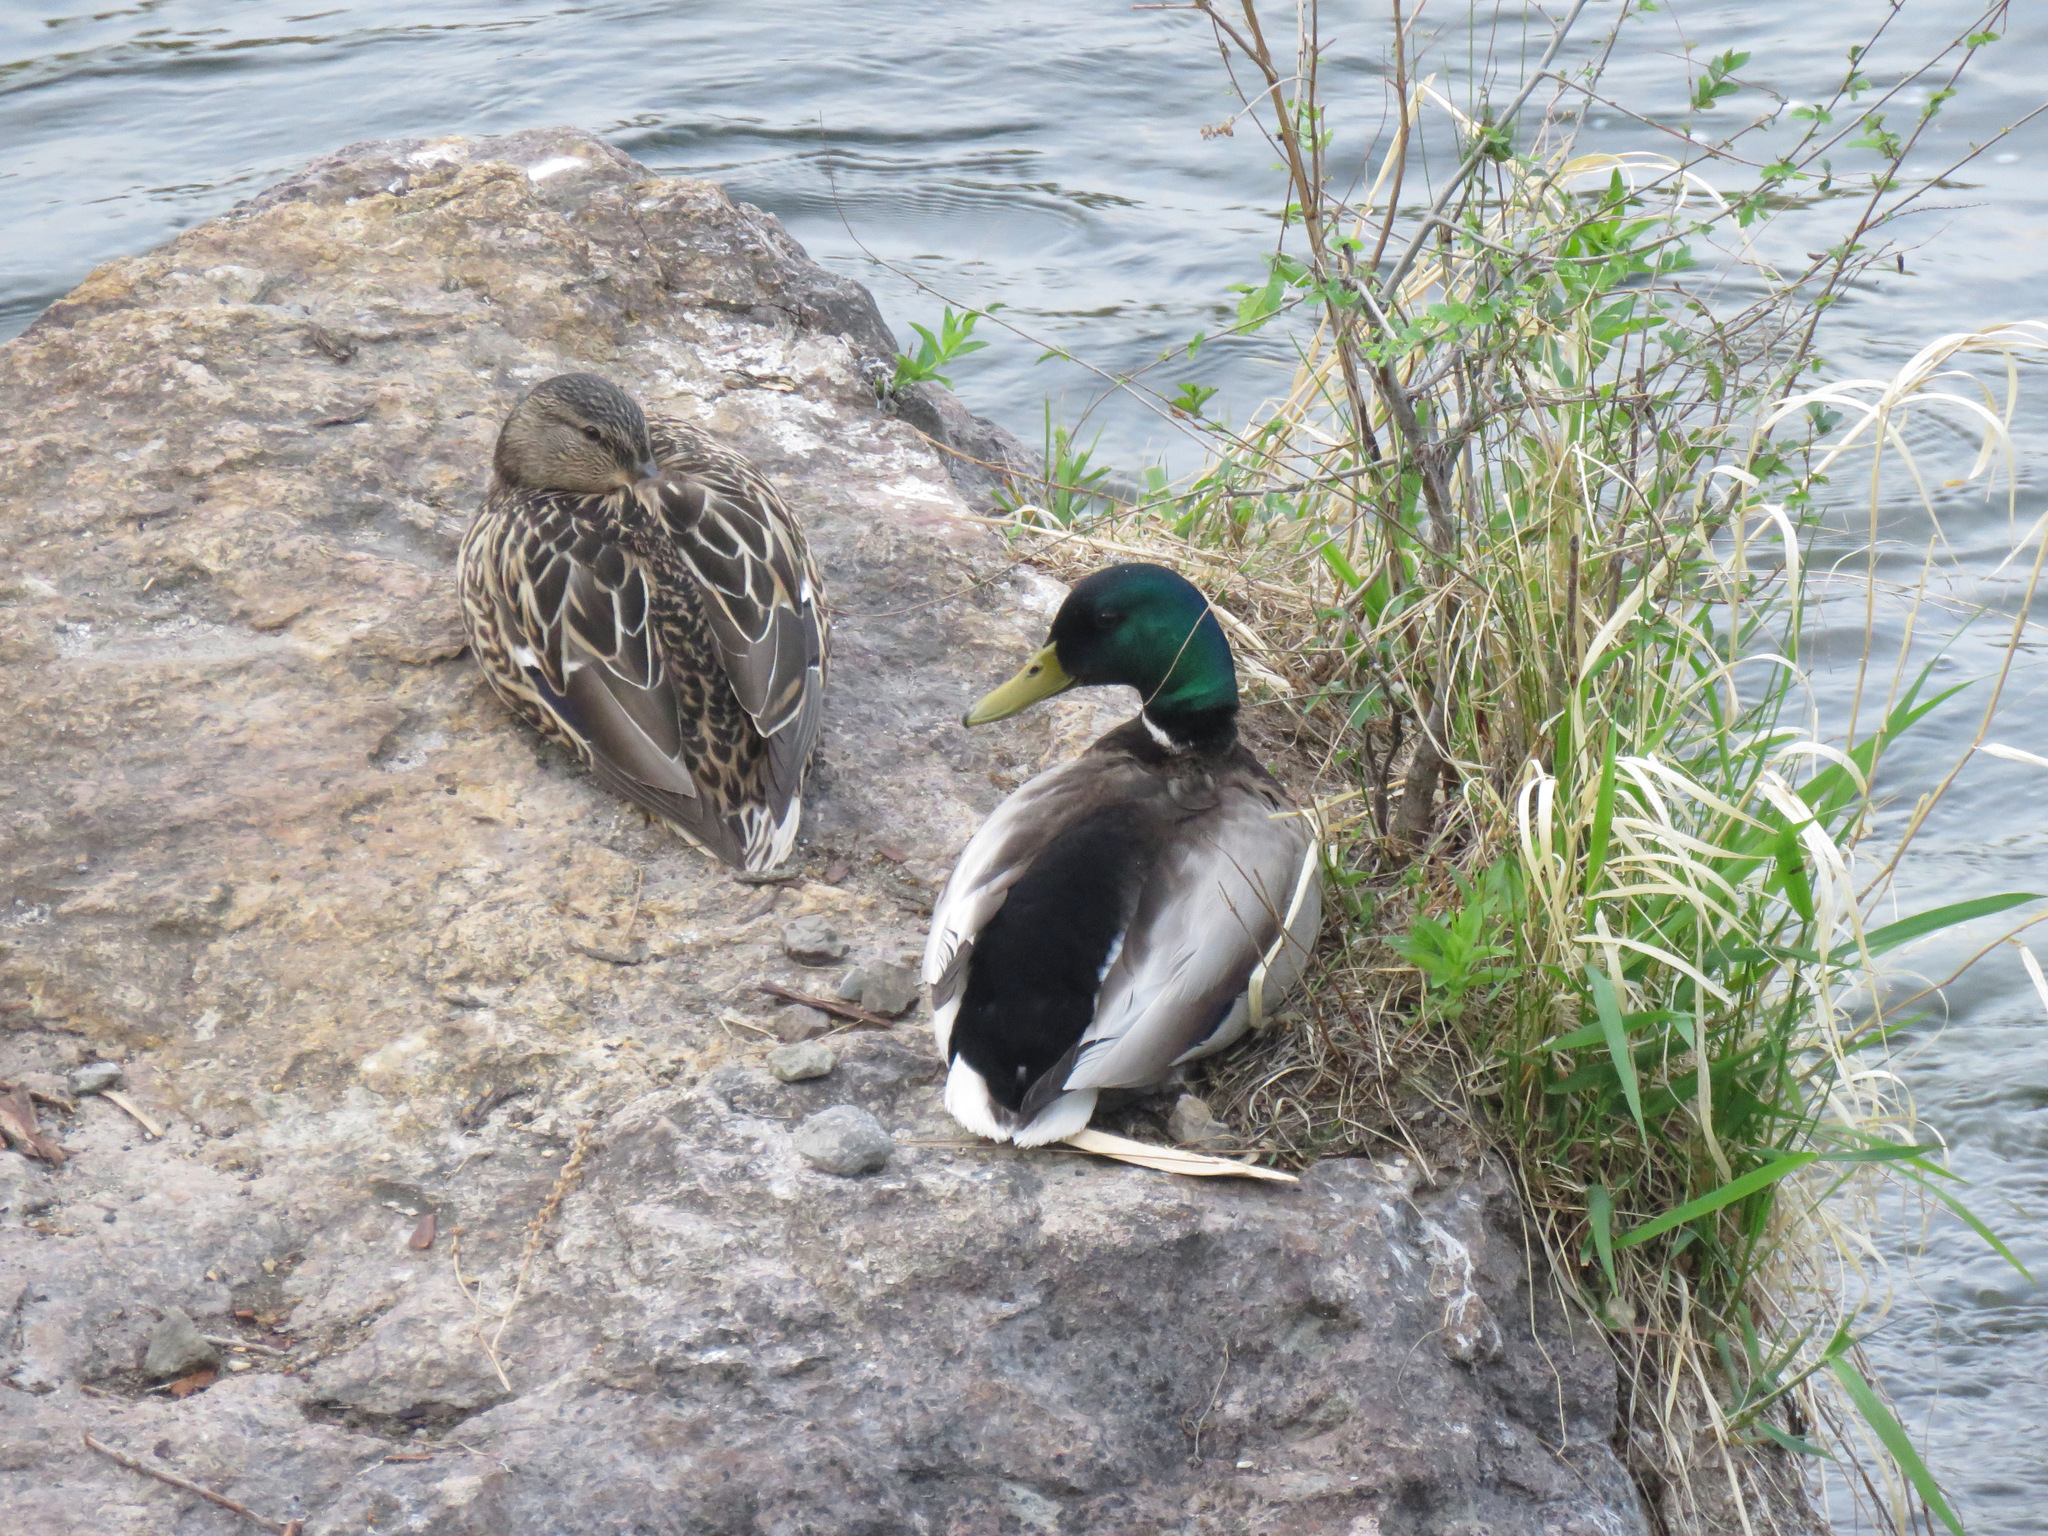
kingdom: Animalia
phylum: Chordata
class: Aves
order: Anseriformes
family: Anatidae
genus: Anas
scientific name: Anas platyrhynchos
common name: Mallard
